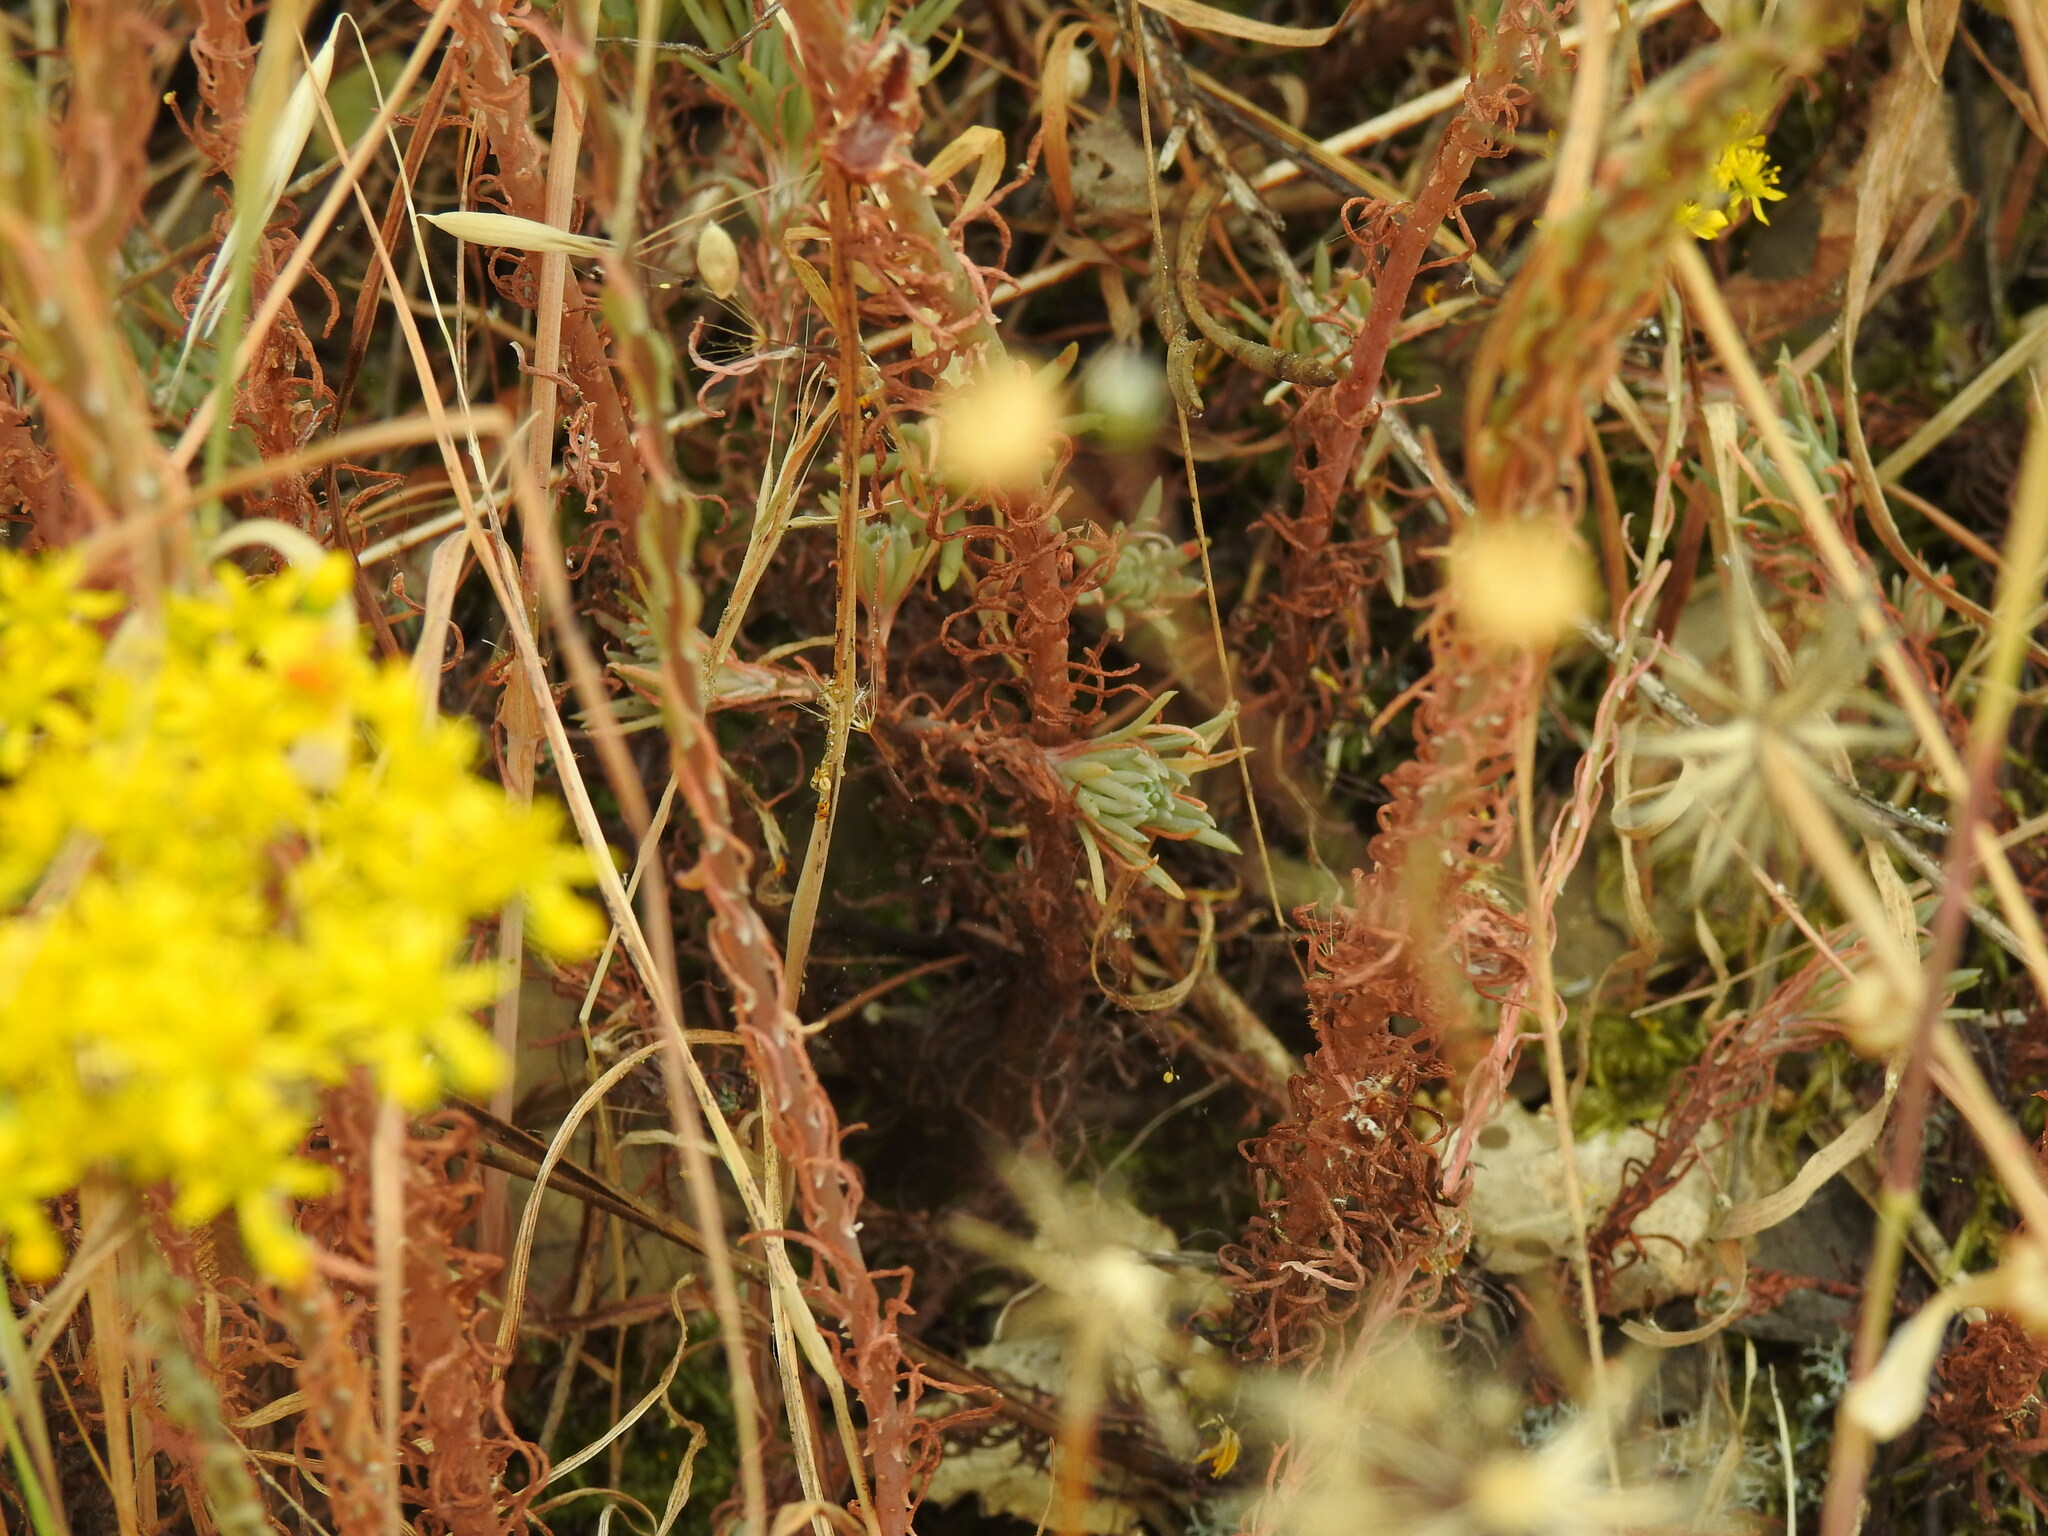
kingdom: Plantae
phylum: Tracheophyta
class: Magnoliopsida
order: Saxifragales
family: Crassulaceae
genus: Petrosedum
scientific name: Petrosedum forsterianum
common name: Forster's stonecrop
